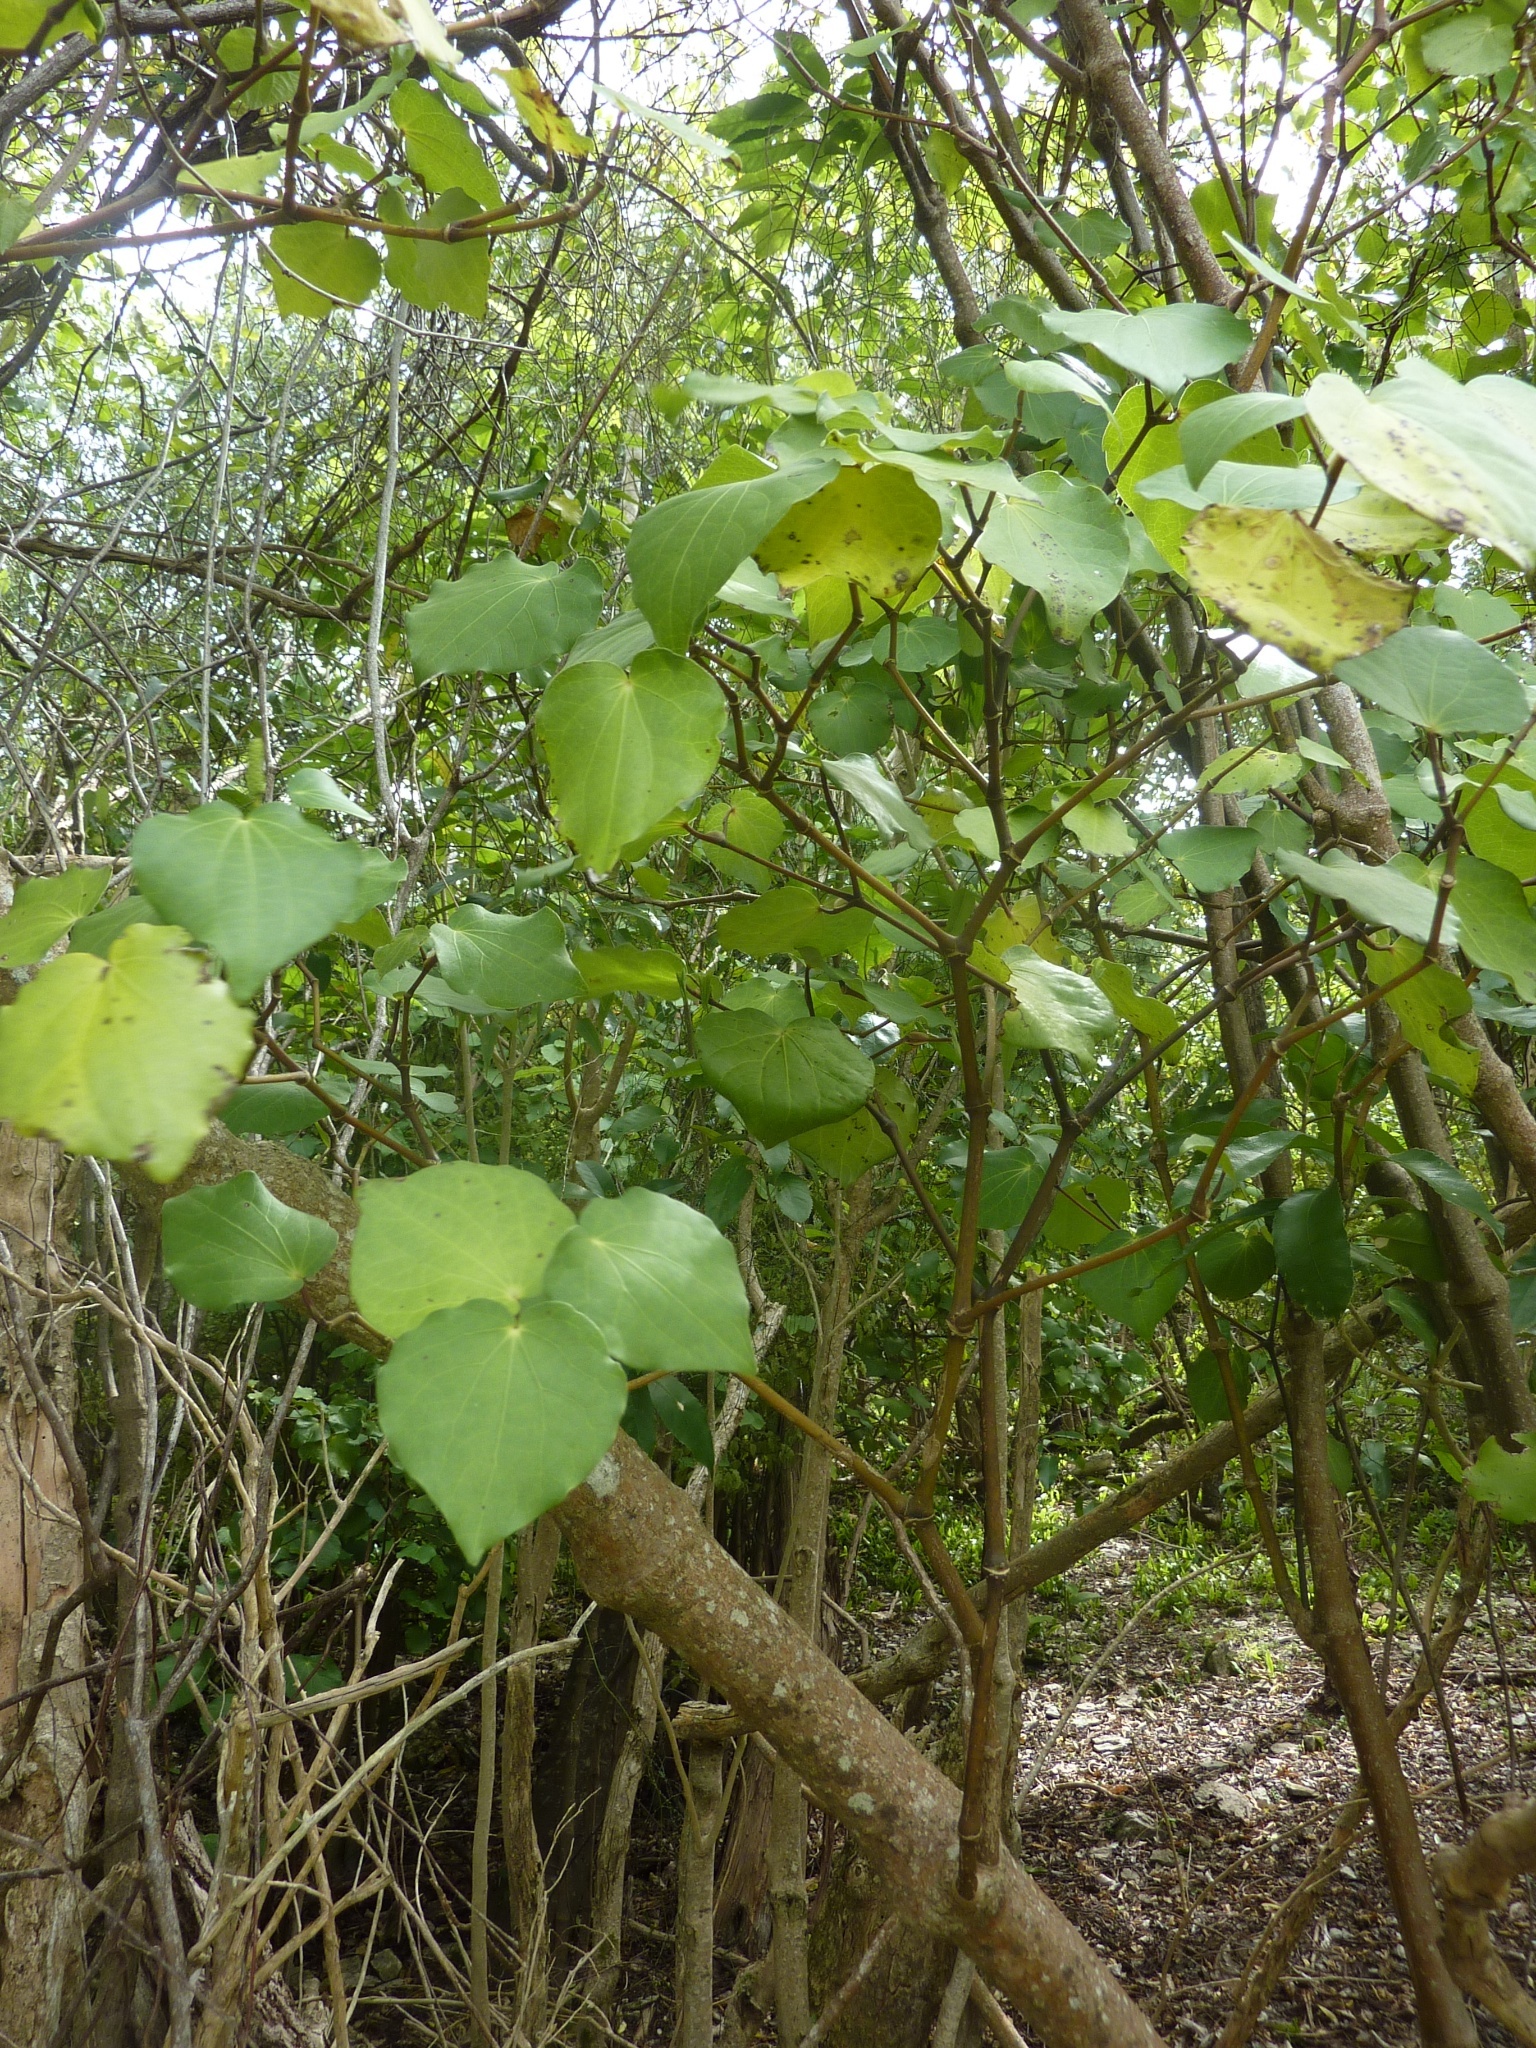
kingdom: Plantae
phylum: Tracheophyta
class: Magnoliopsida
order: Piperales
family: Piperaceae
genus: Macropiper
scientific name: Macropiper excelsum
